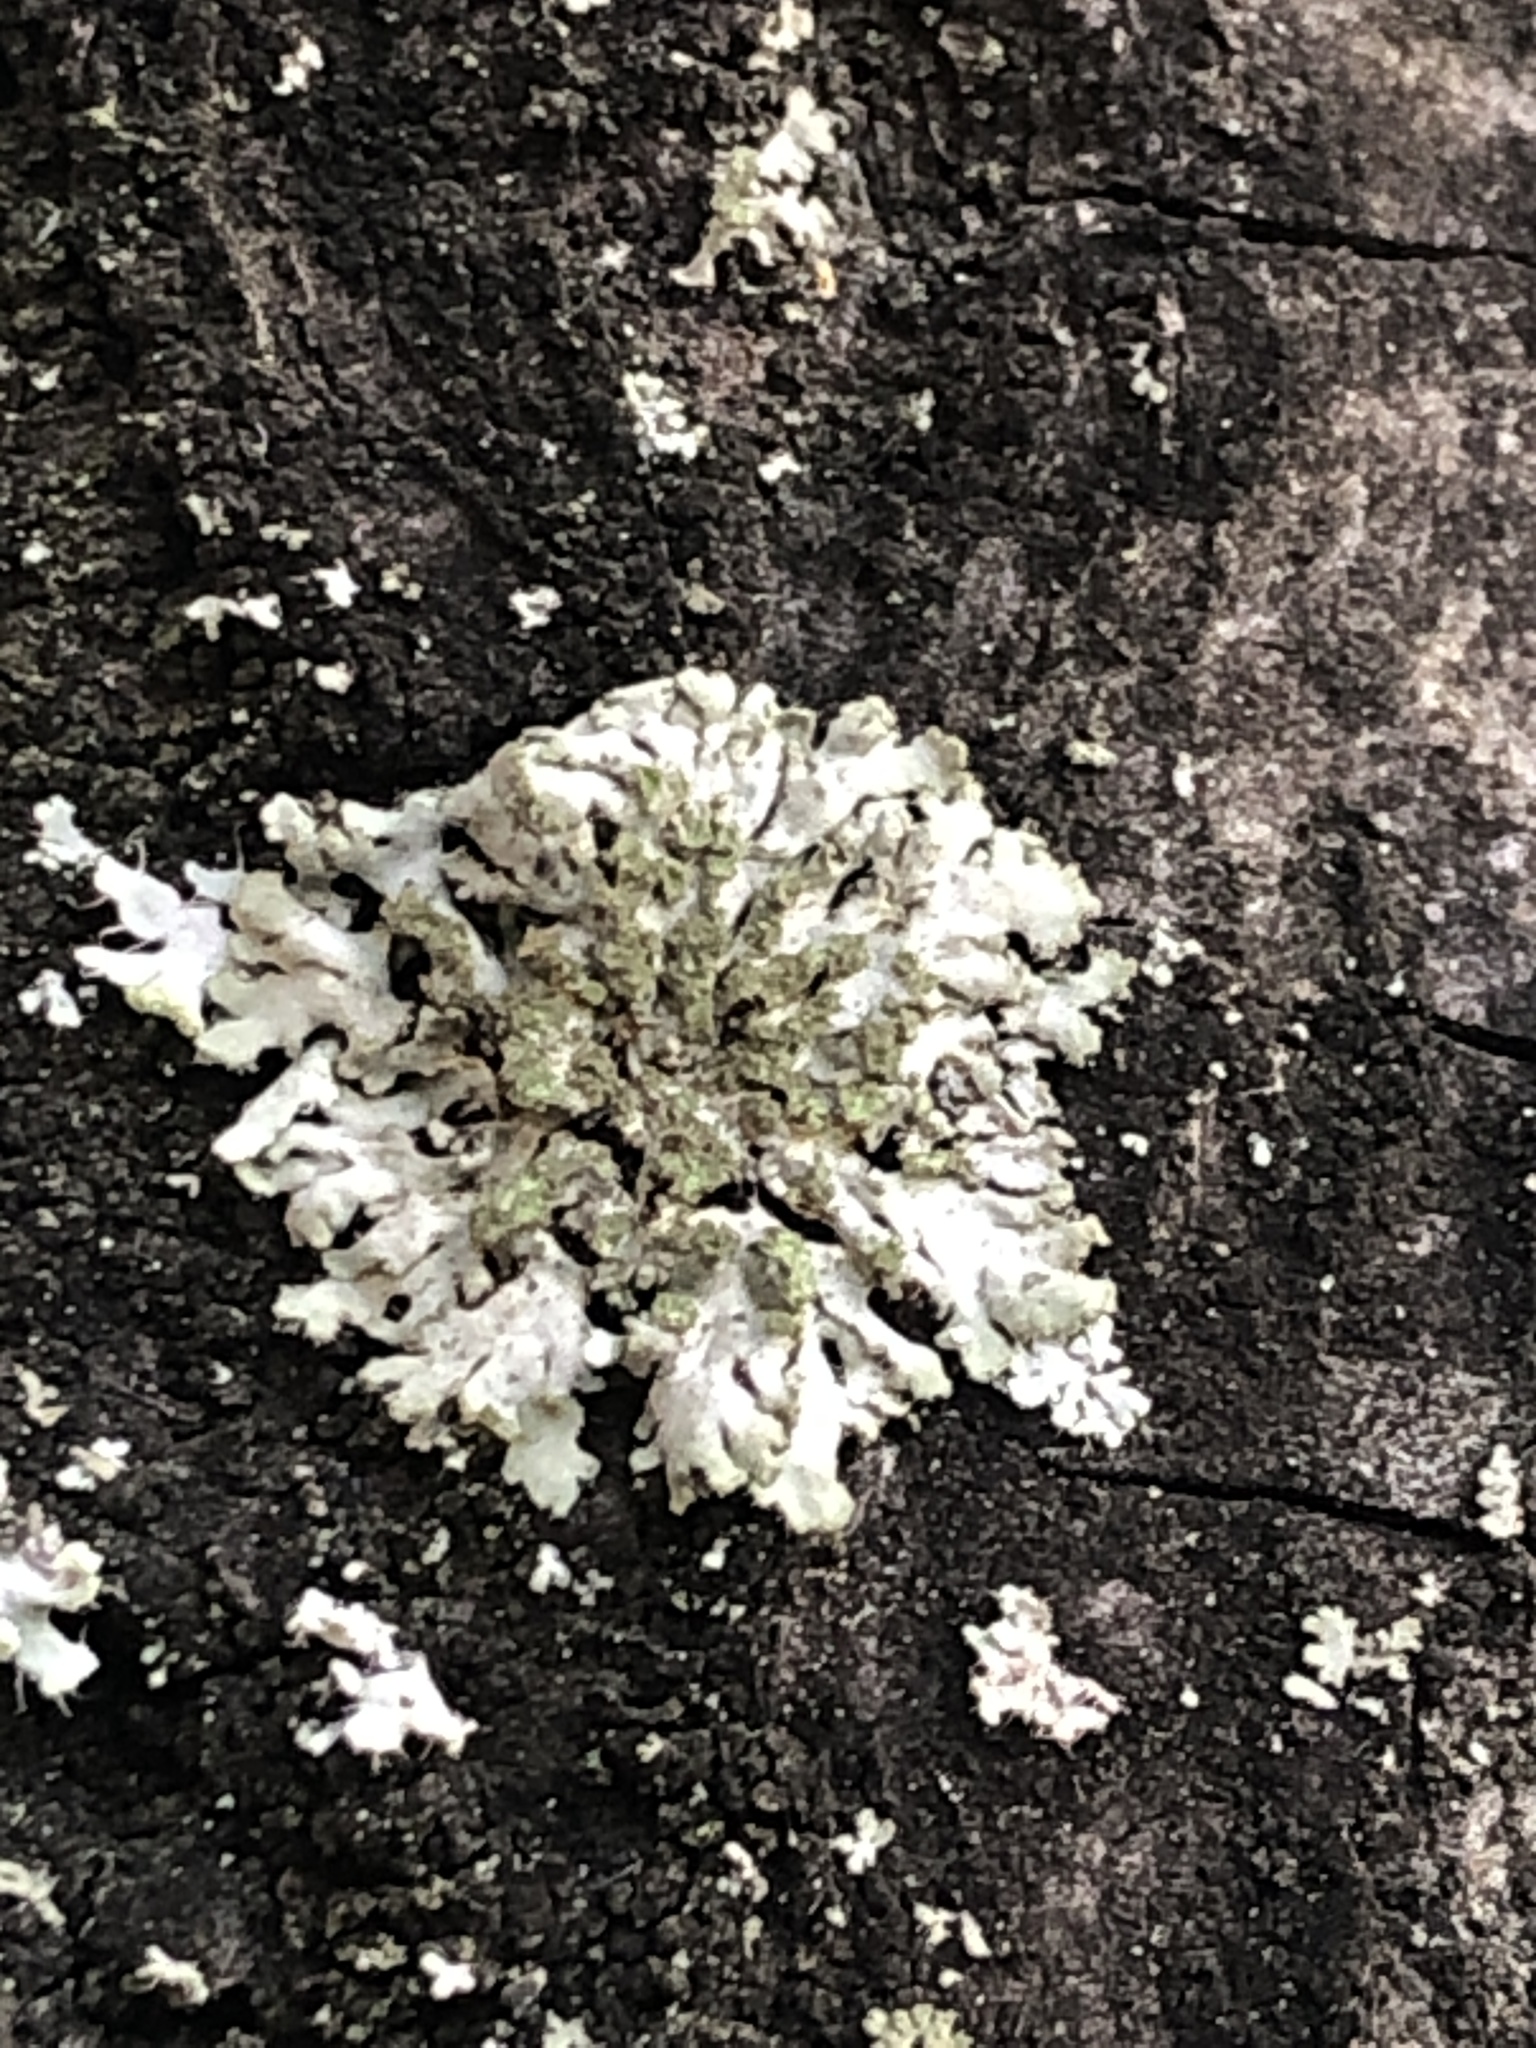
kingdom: Fungi
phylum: Ascomycota
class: Lecanoromycetes
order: Caliciales
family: Physciaceae
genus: Phaeophyscia
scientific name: Phaeophyscia orbicularis
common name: Mealy shadow lichen
